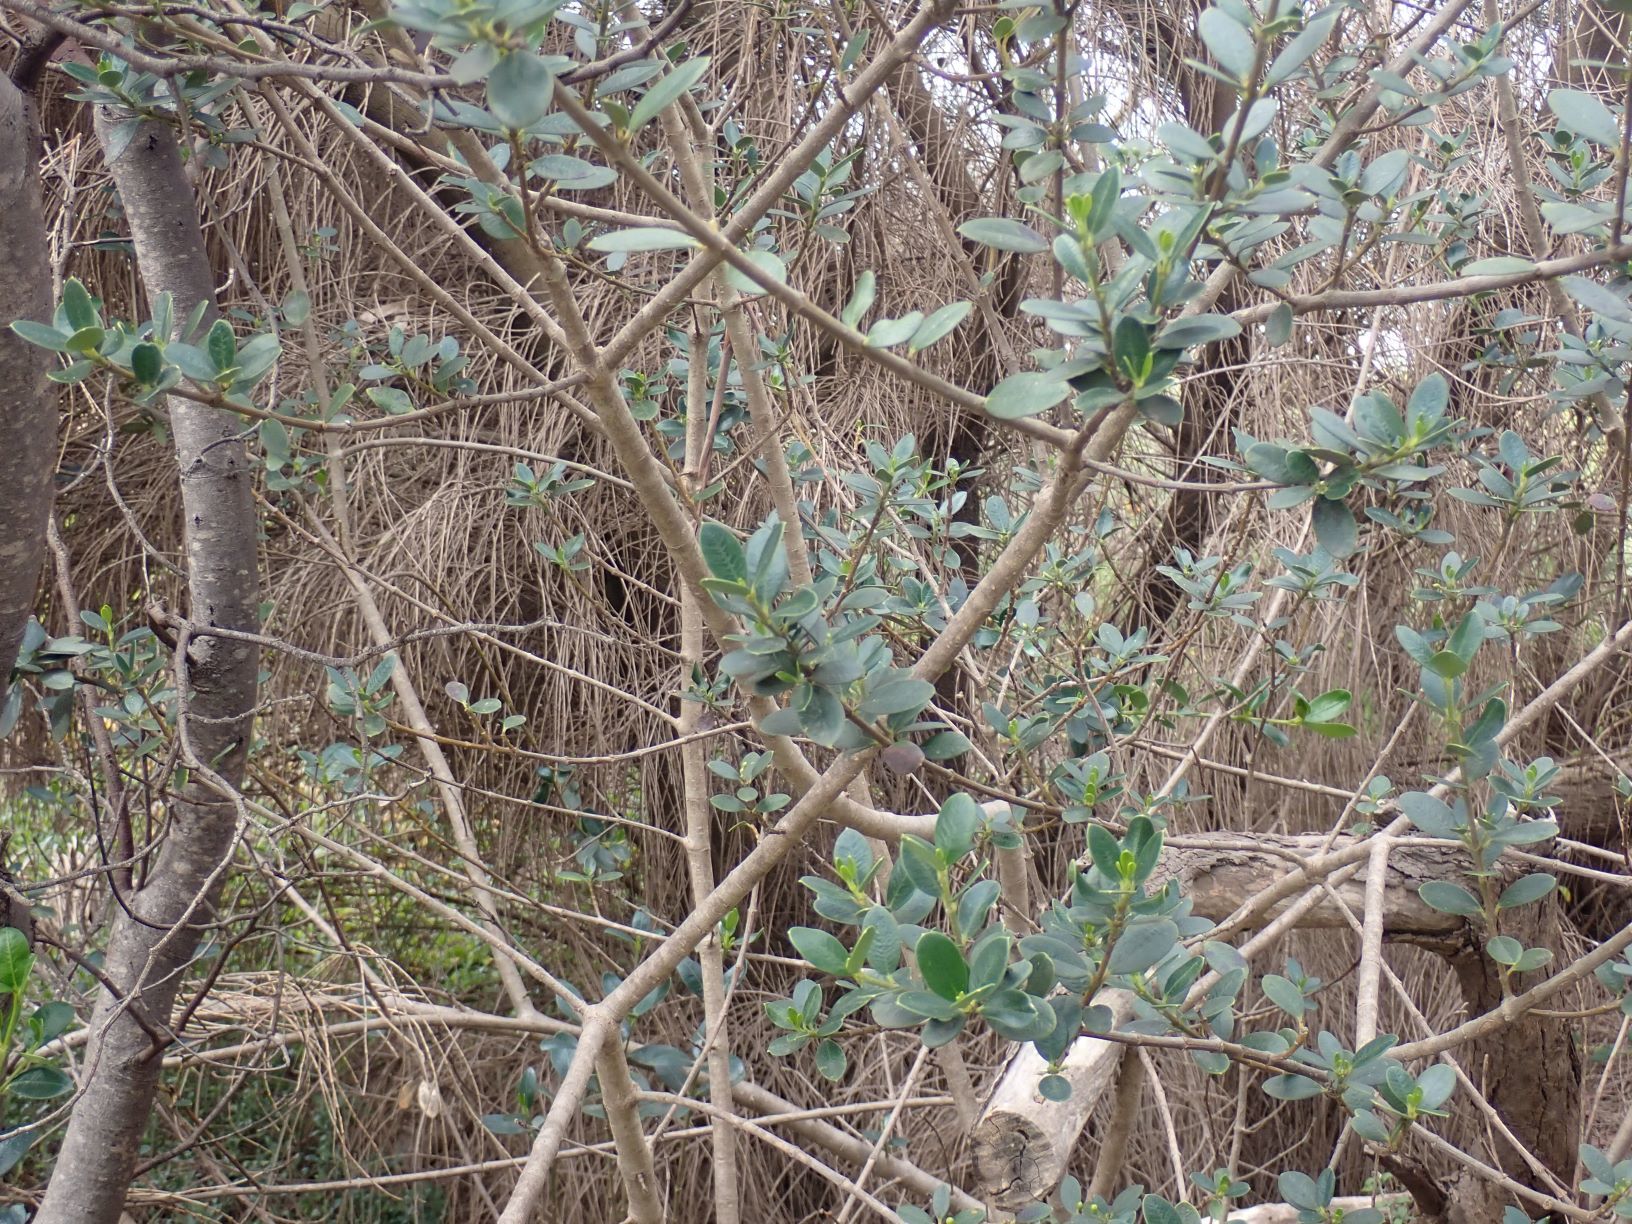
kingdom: Plantae
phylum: Tracheophyta
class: Magnoliopsida
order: Gentianales
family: Apocynaceae
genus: Alyxia
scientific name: Alyxia buxifolia
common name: Dysentery-bush
